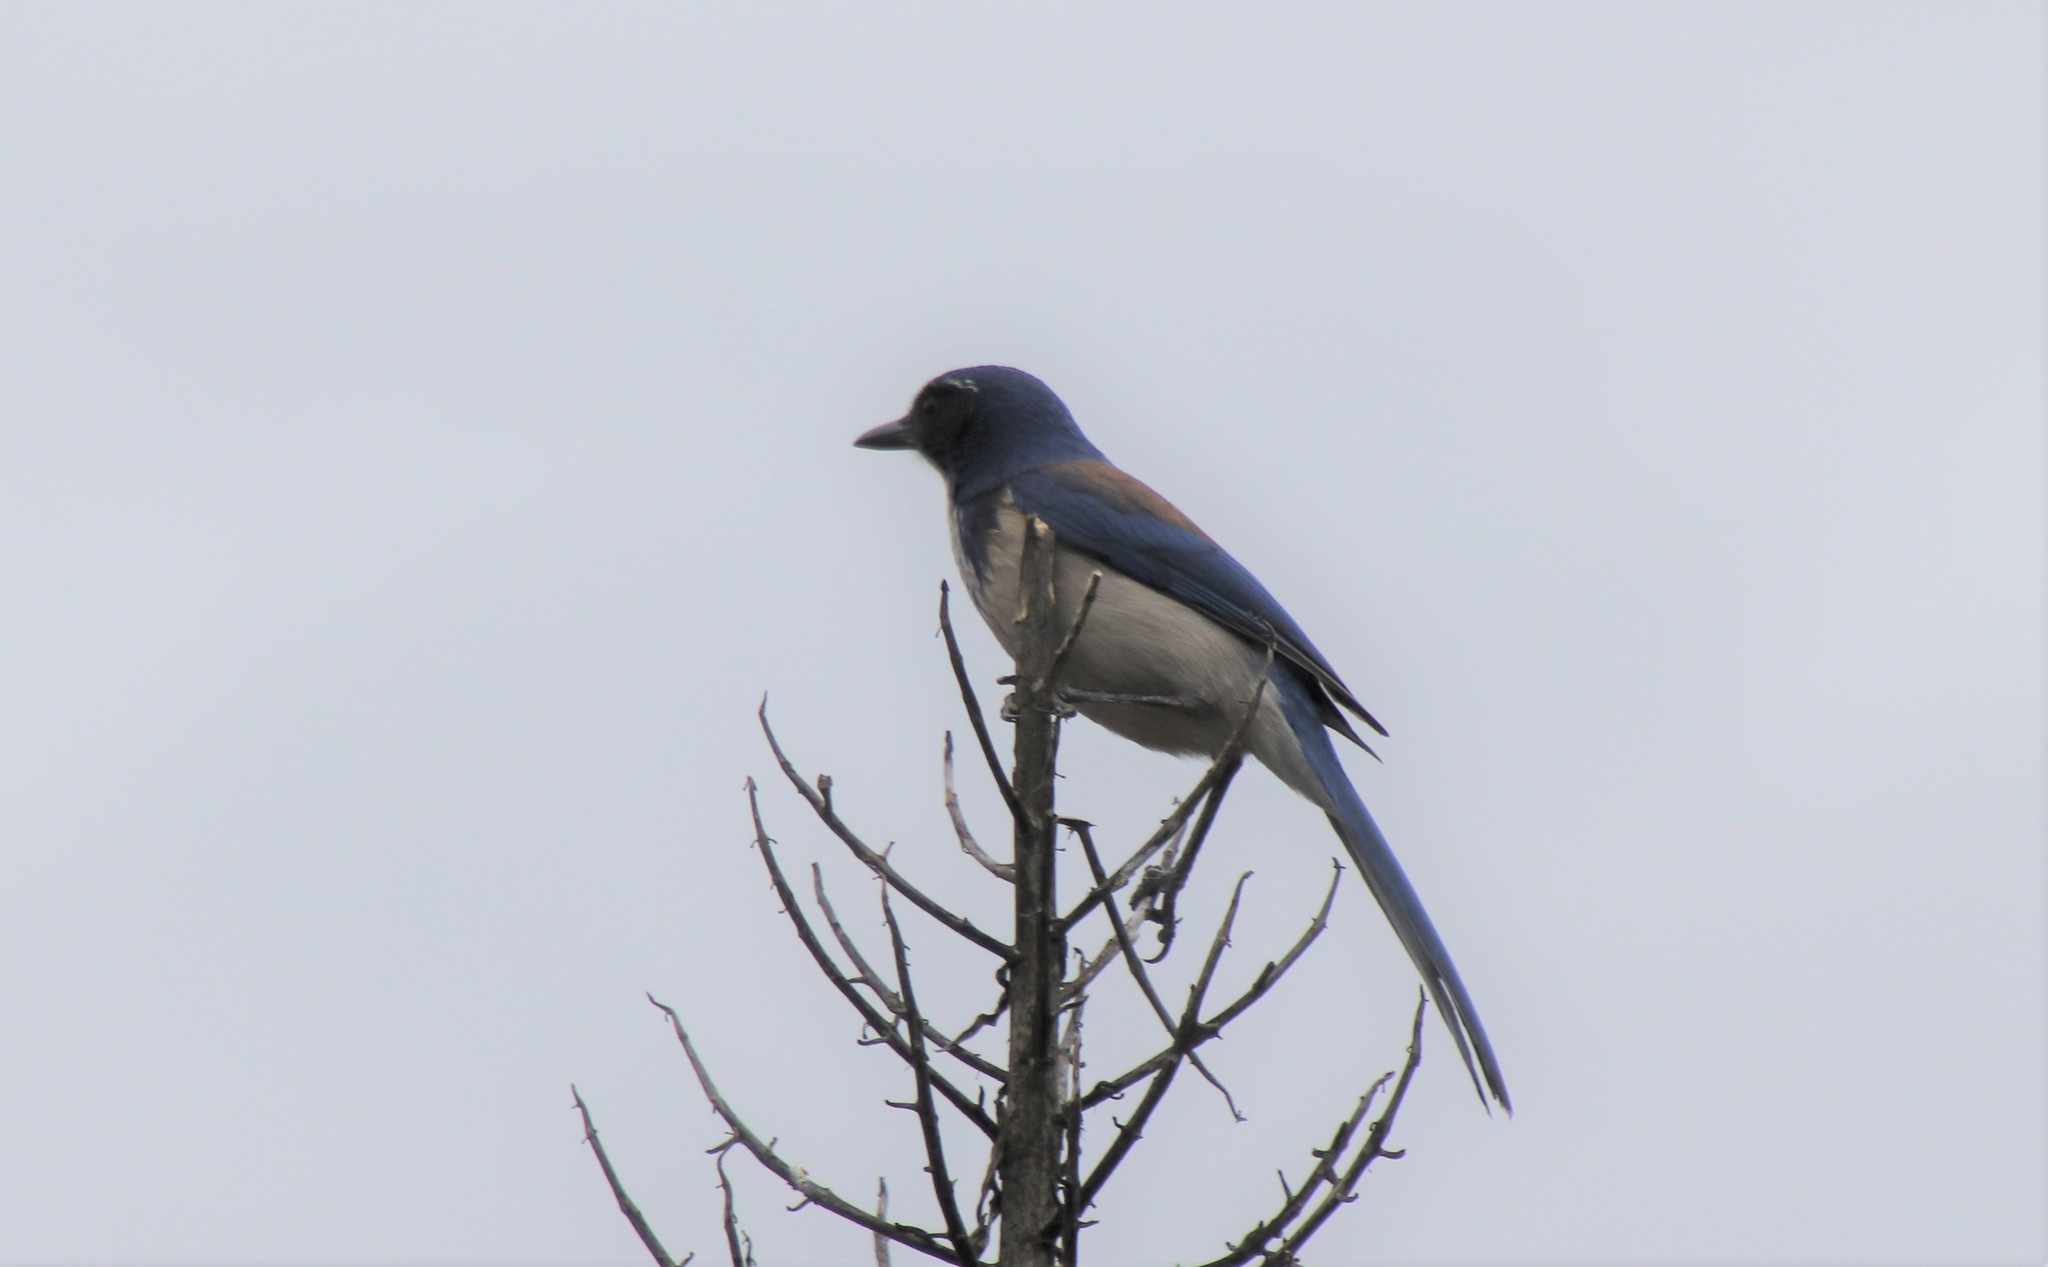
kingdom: Animalia
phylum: Chordata
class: Aves
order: Passeriformes
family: Corvidae
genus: Aphelocoma
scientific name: Aphelocoma californica
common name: California scrub-jay
